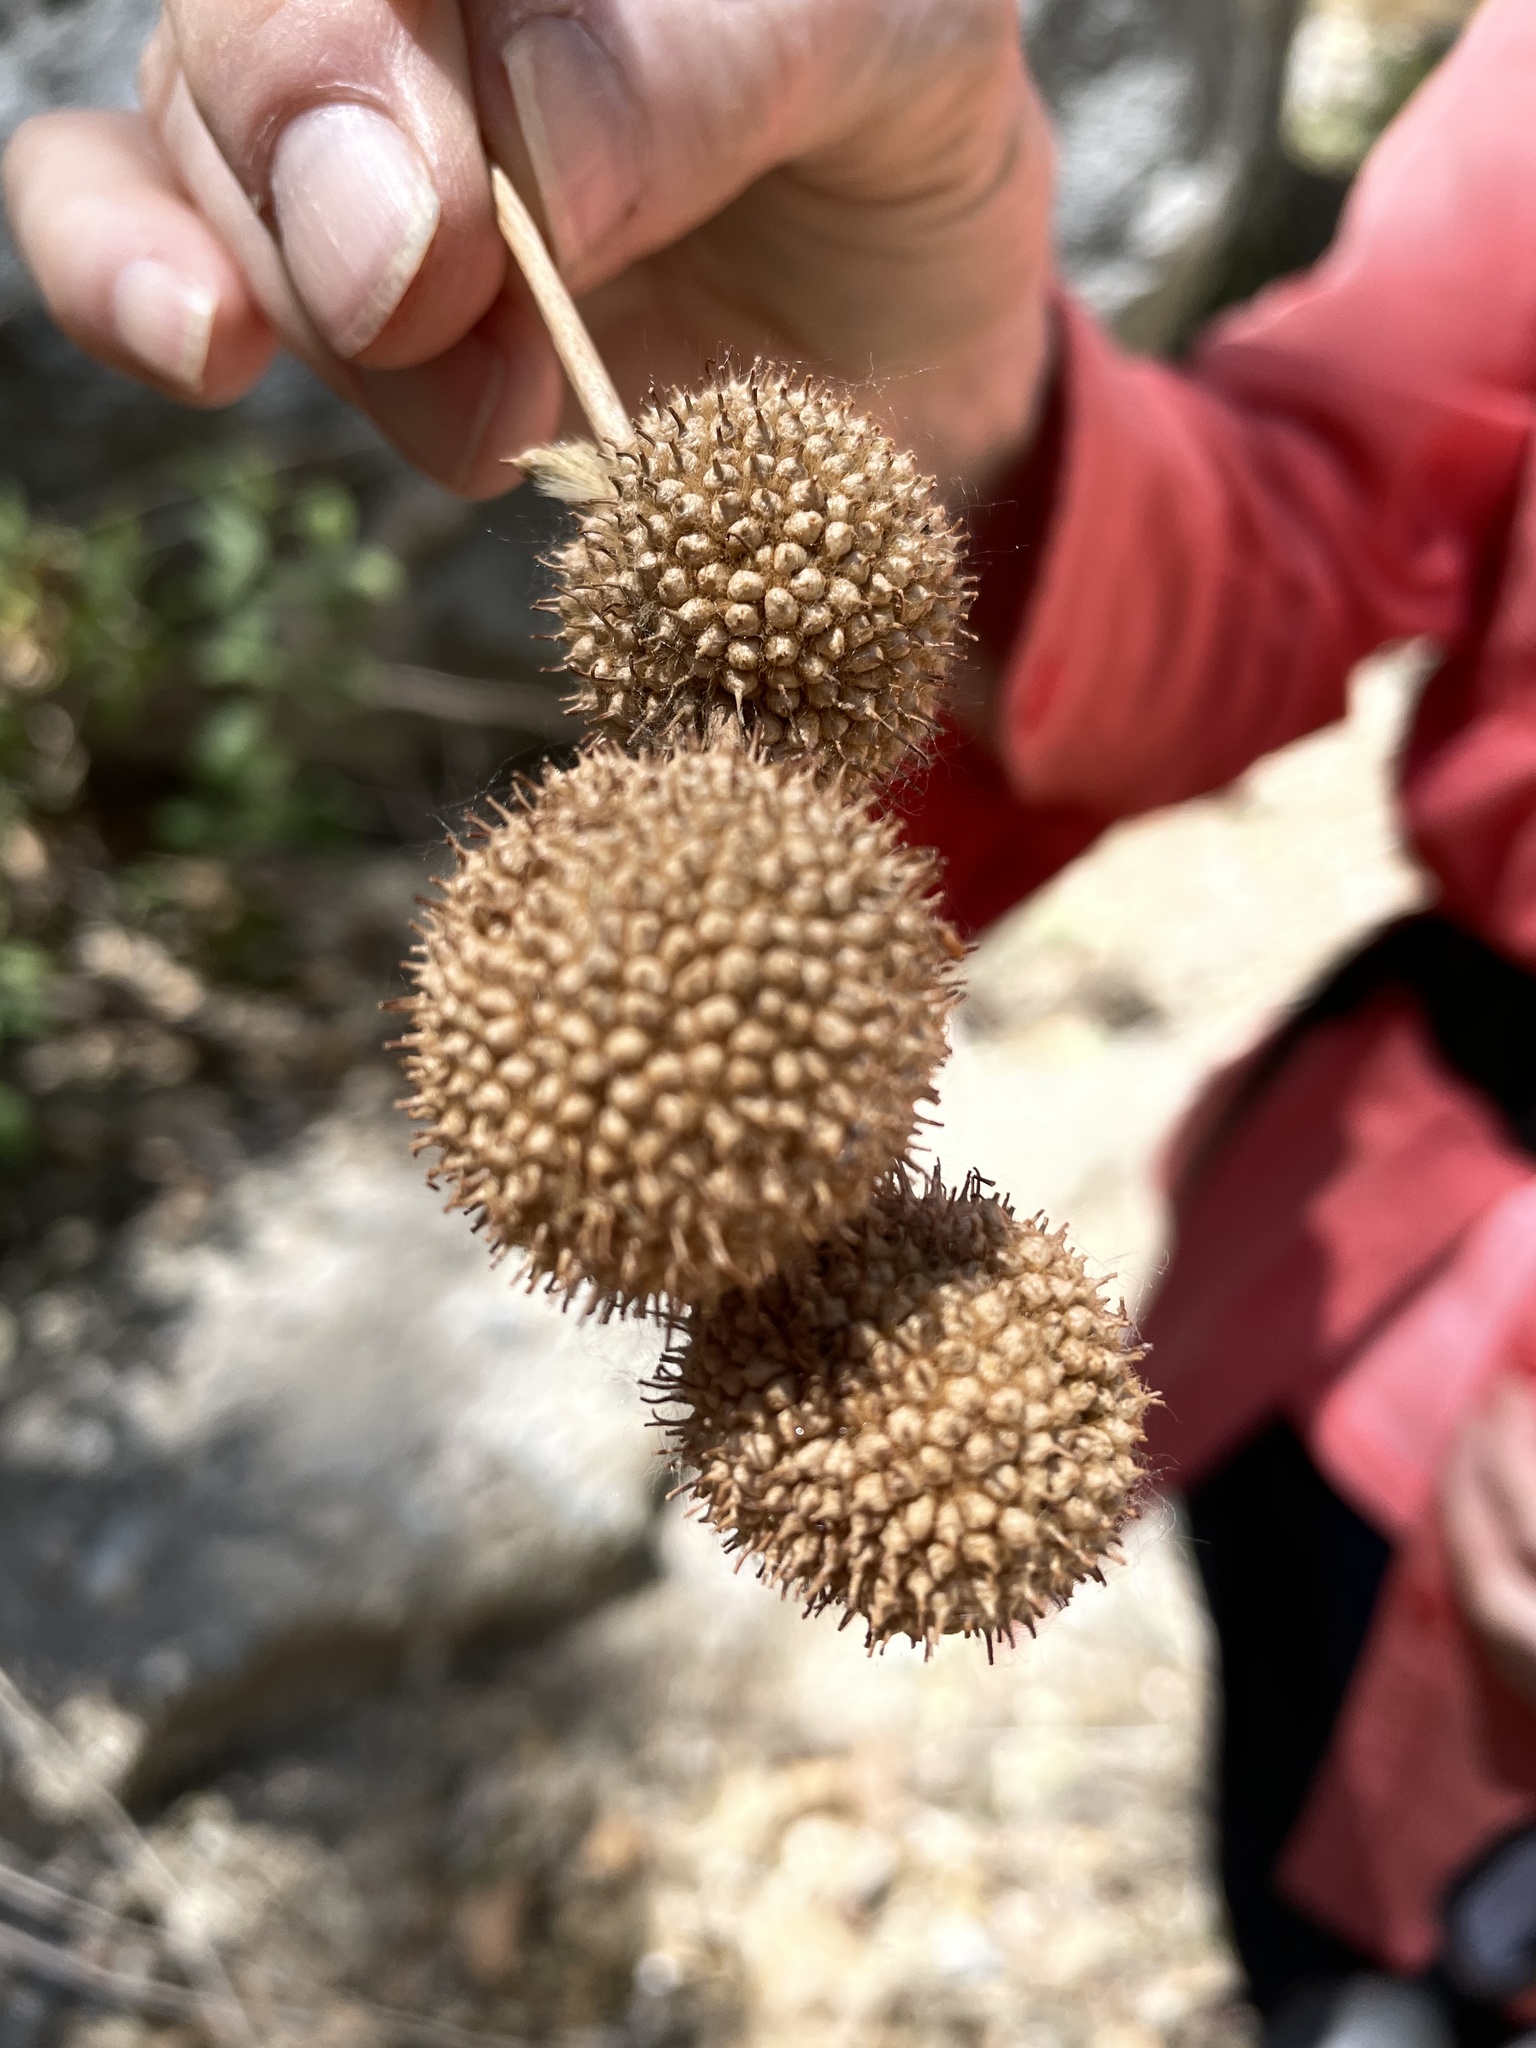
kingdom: Plantae
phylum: Tracheophyta
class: Magnoliopsida
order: Proteales
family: Platanaceae
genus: Platanus
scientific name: Platanus racemosa
